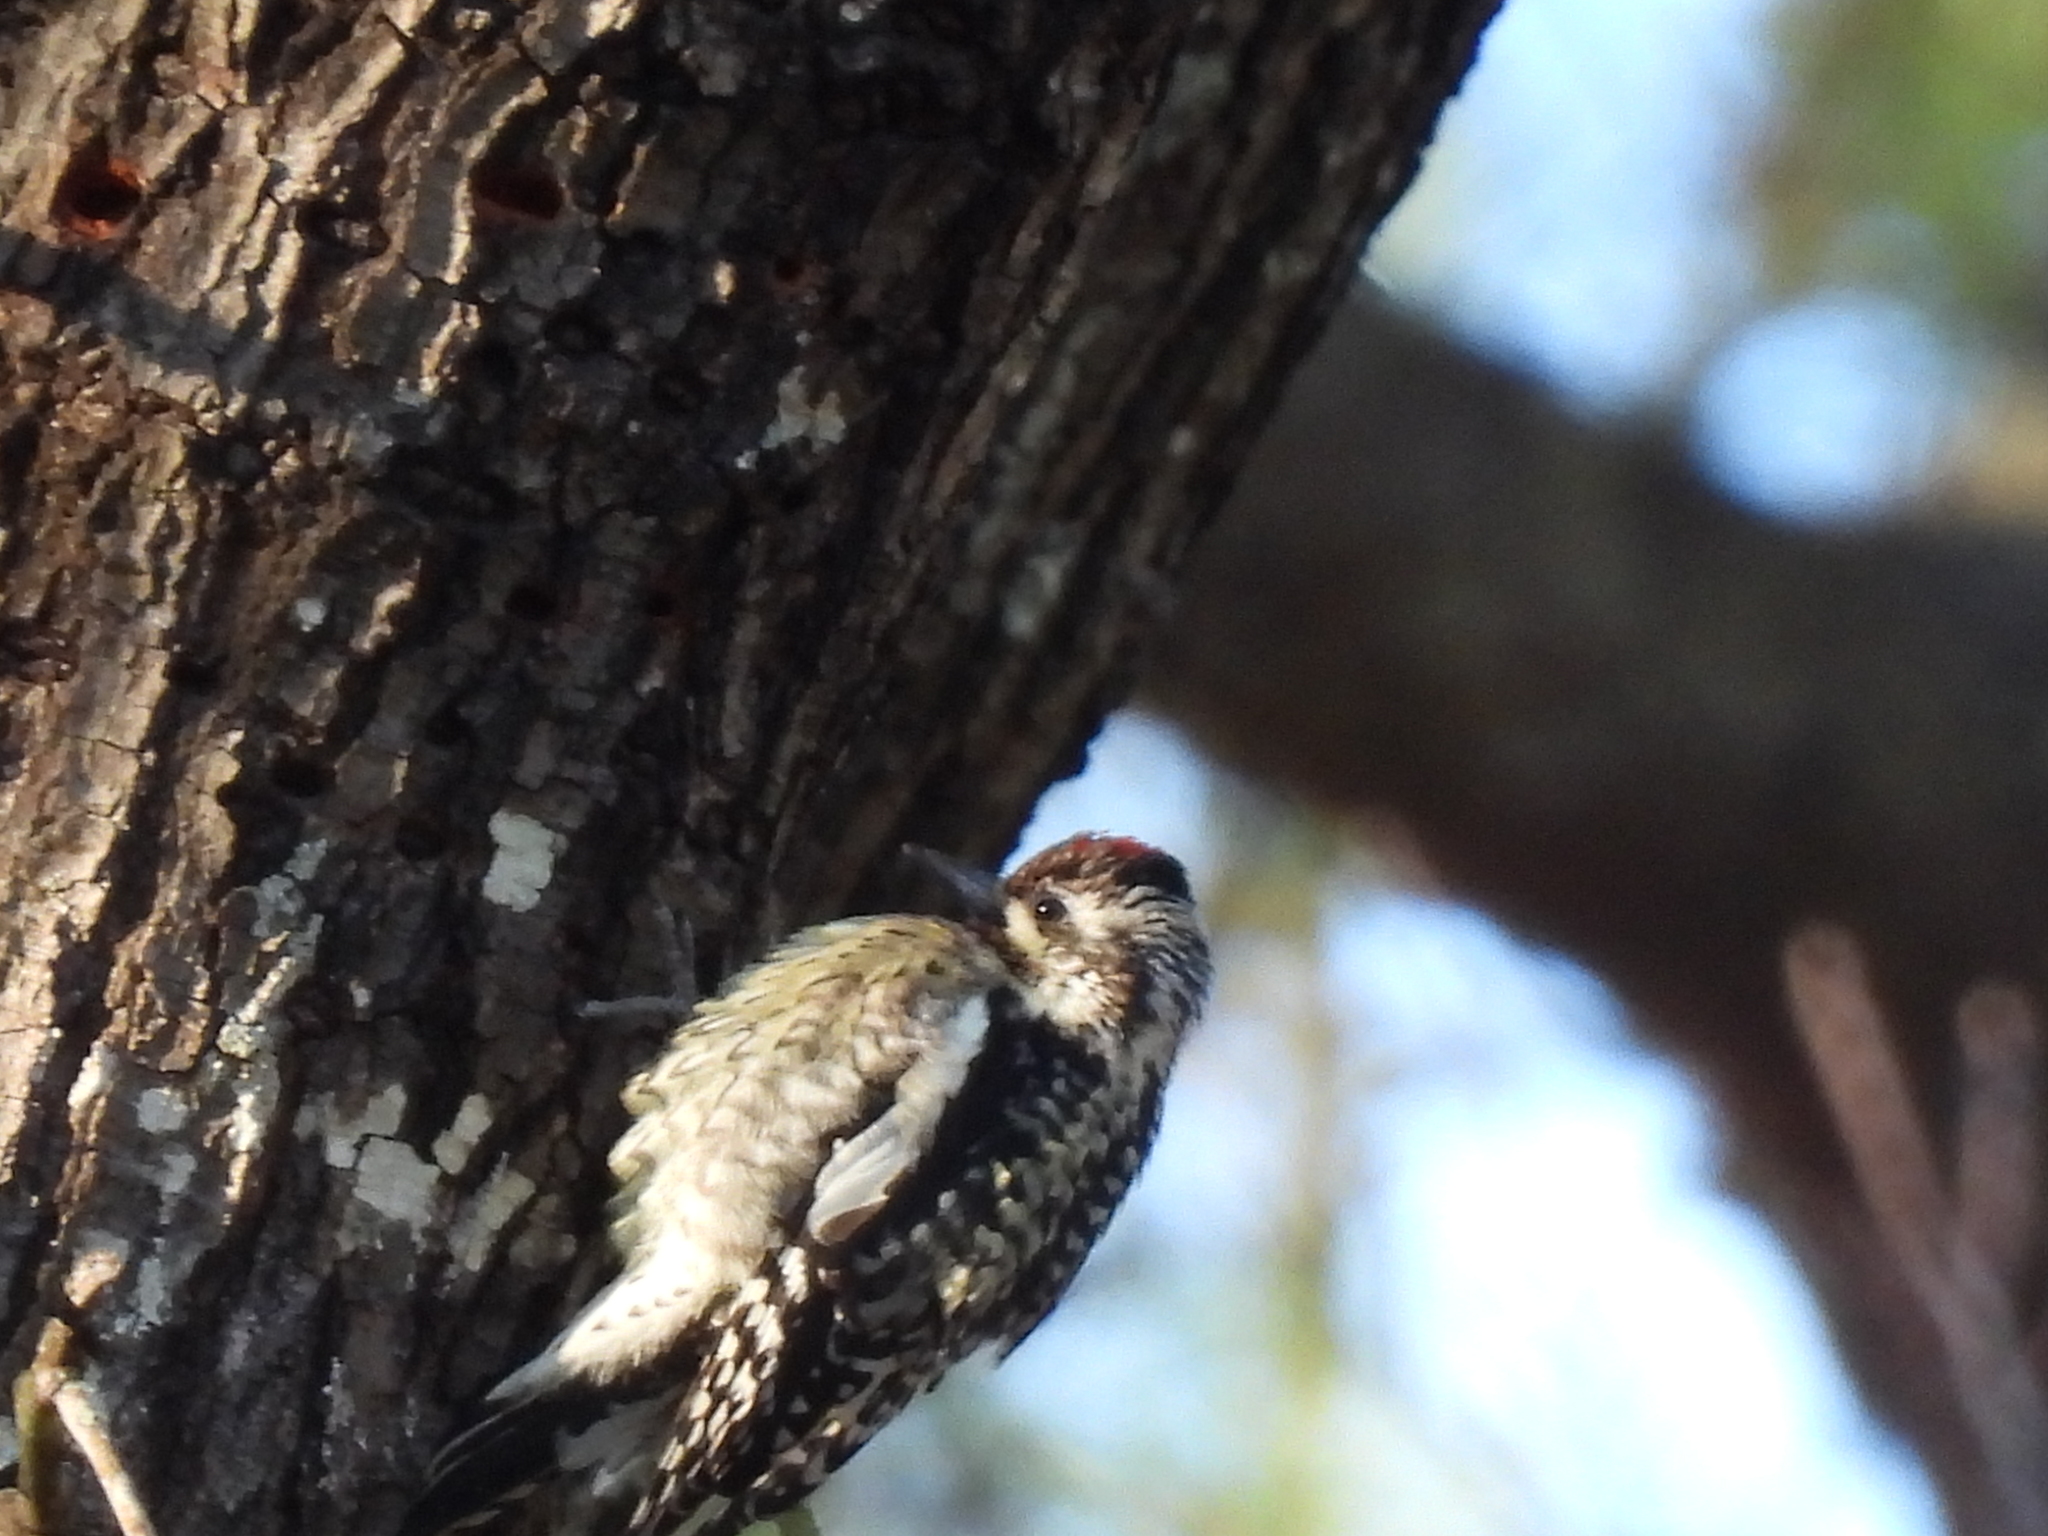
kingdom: Animalia
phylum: Chordata
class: Aves
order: Piciformes
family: Picidae
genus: Sphyrapicus
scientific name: Sphyrapicus varius
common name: Yellow-bellied sapsucker
